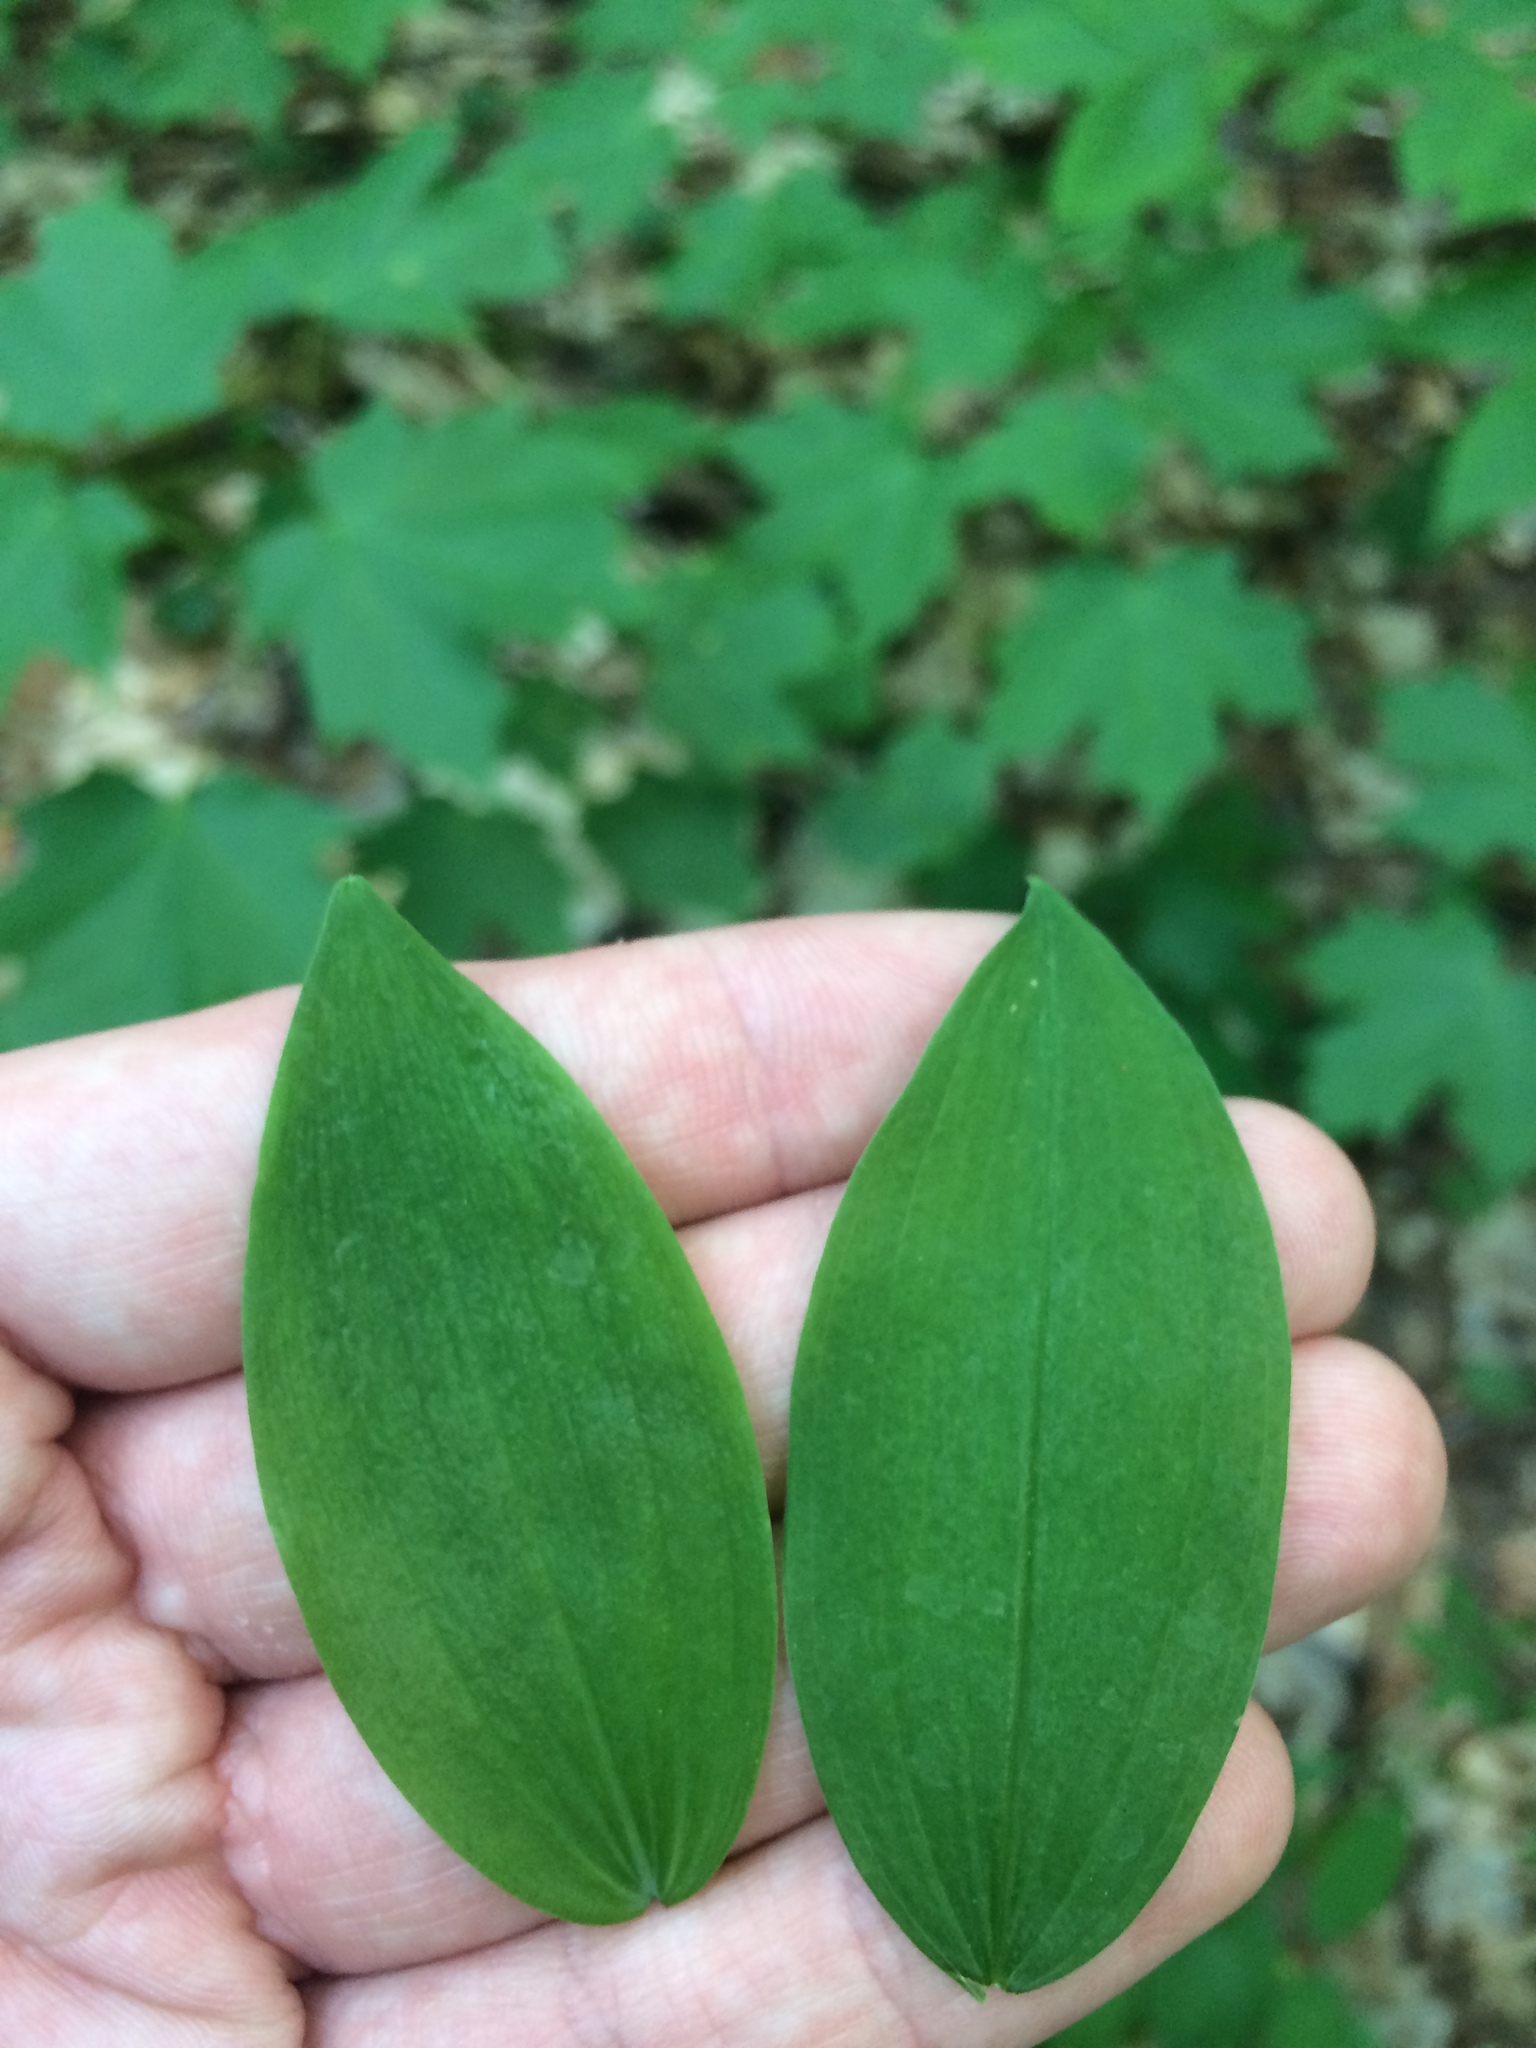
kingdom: Plantae
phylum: Tracheophyta
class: Liliopsida
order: Asparagales
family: Asparagaceae
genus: Polygonatum
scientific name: Polygonatum pubescens
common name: Downy solomon's seal
